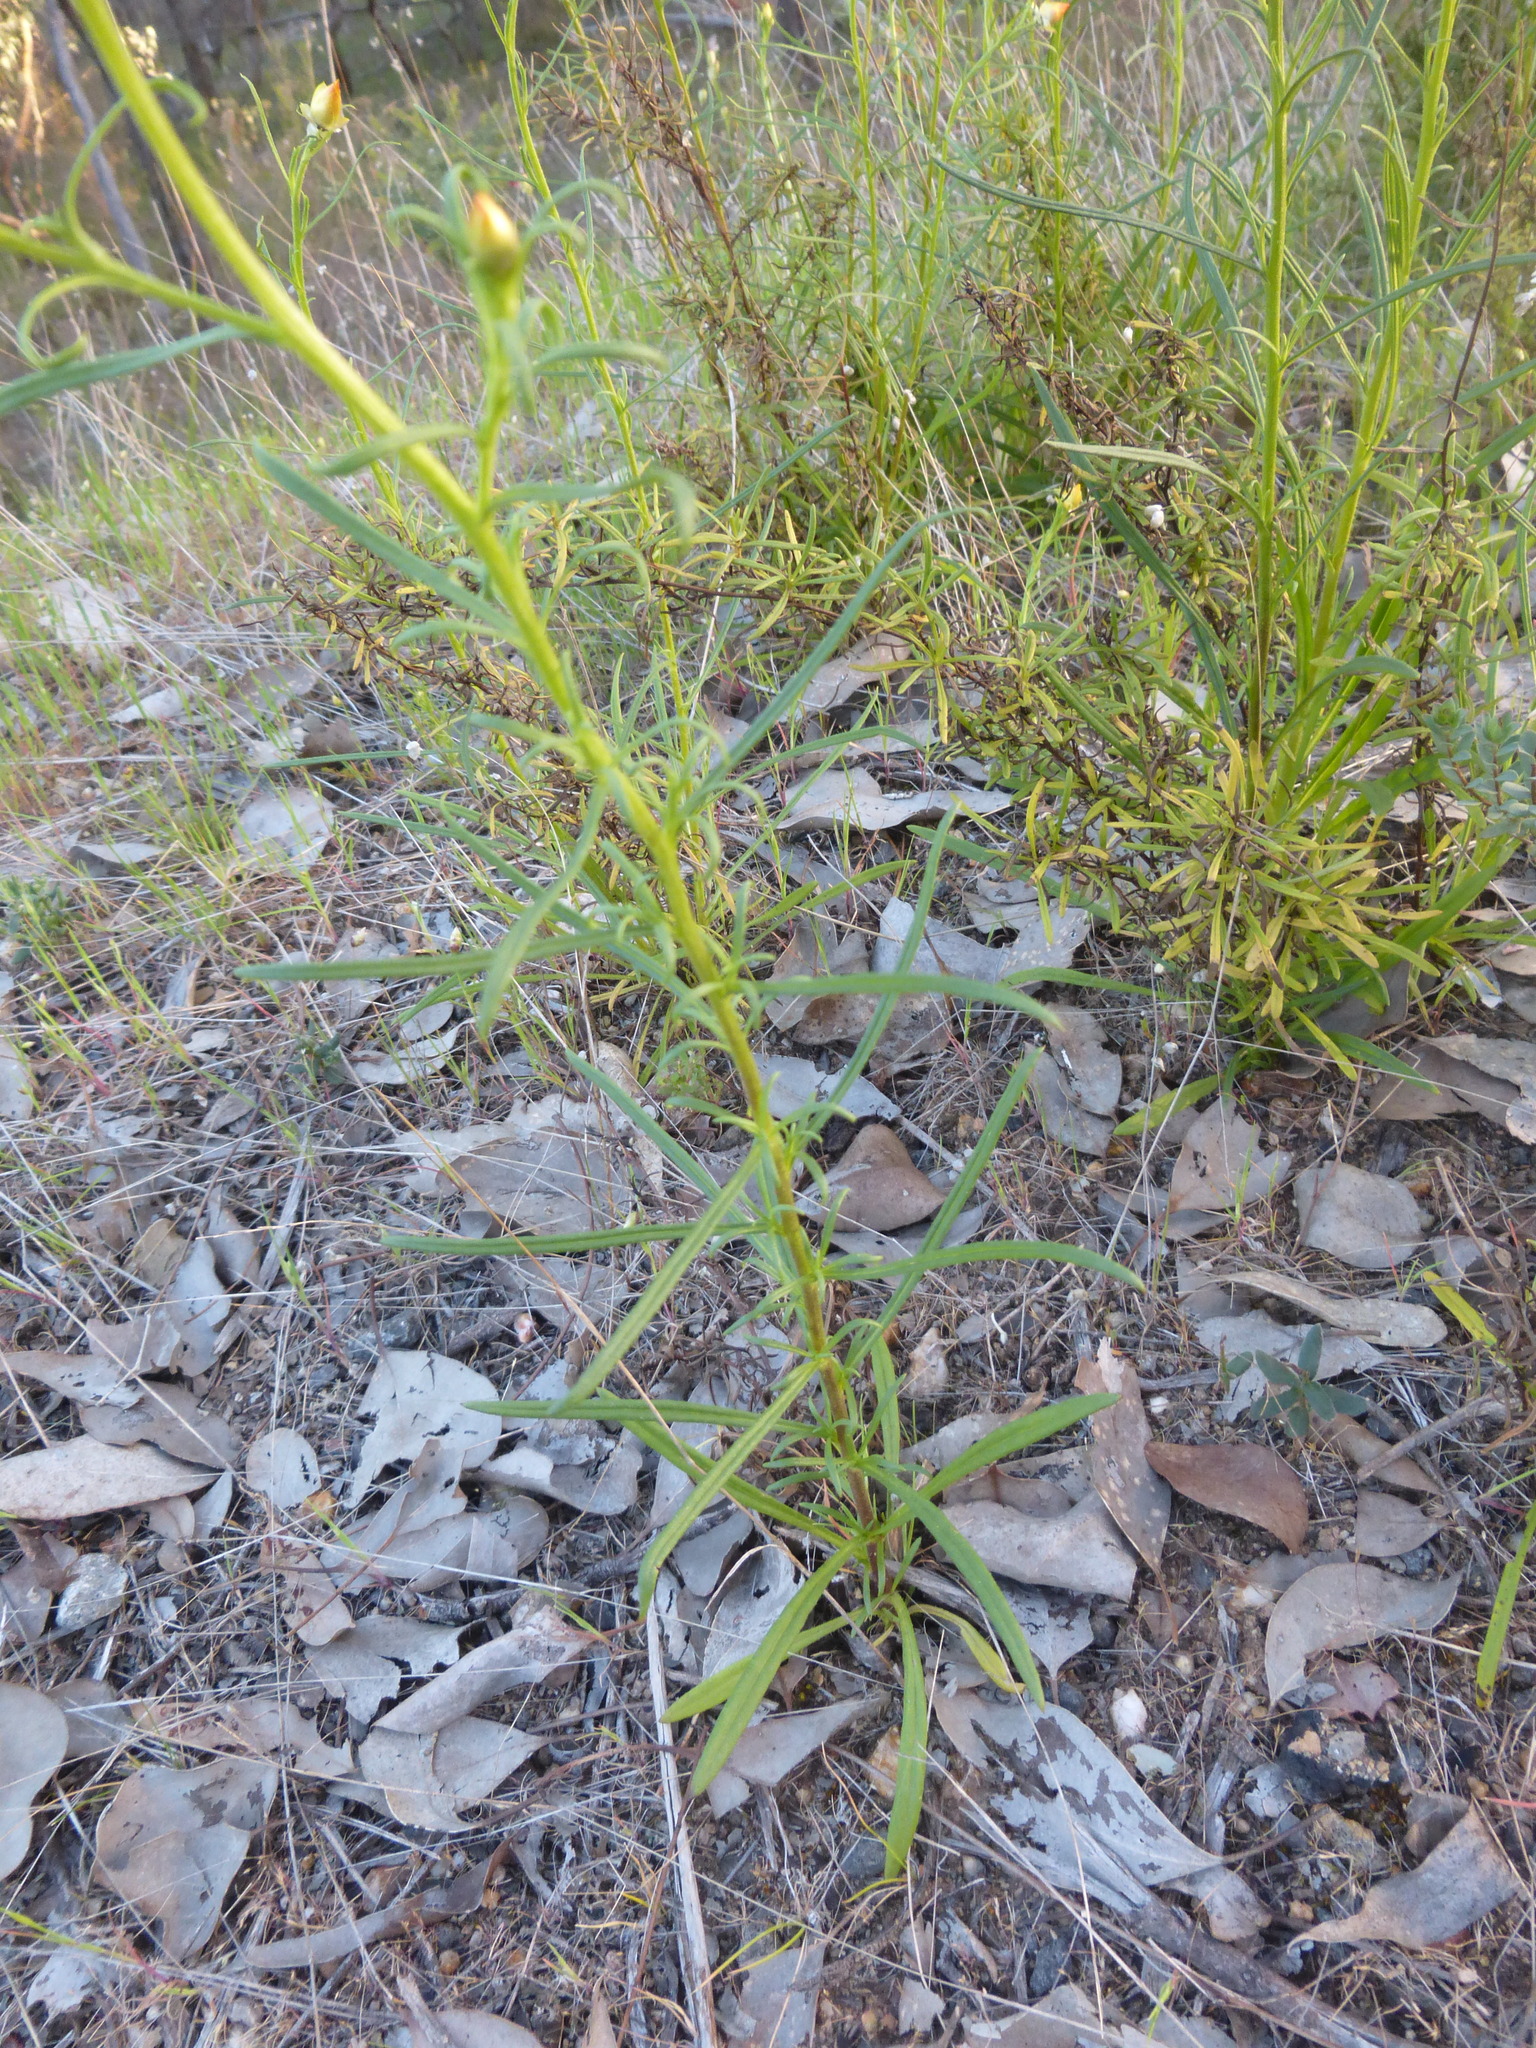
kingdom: Plantae
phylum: Tracheophyta
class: Magnoliopsida
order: Asterales
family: Asteraceae
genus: Xerochrysum
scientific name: Xerochrysum viscosum
